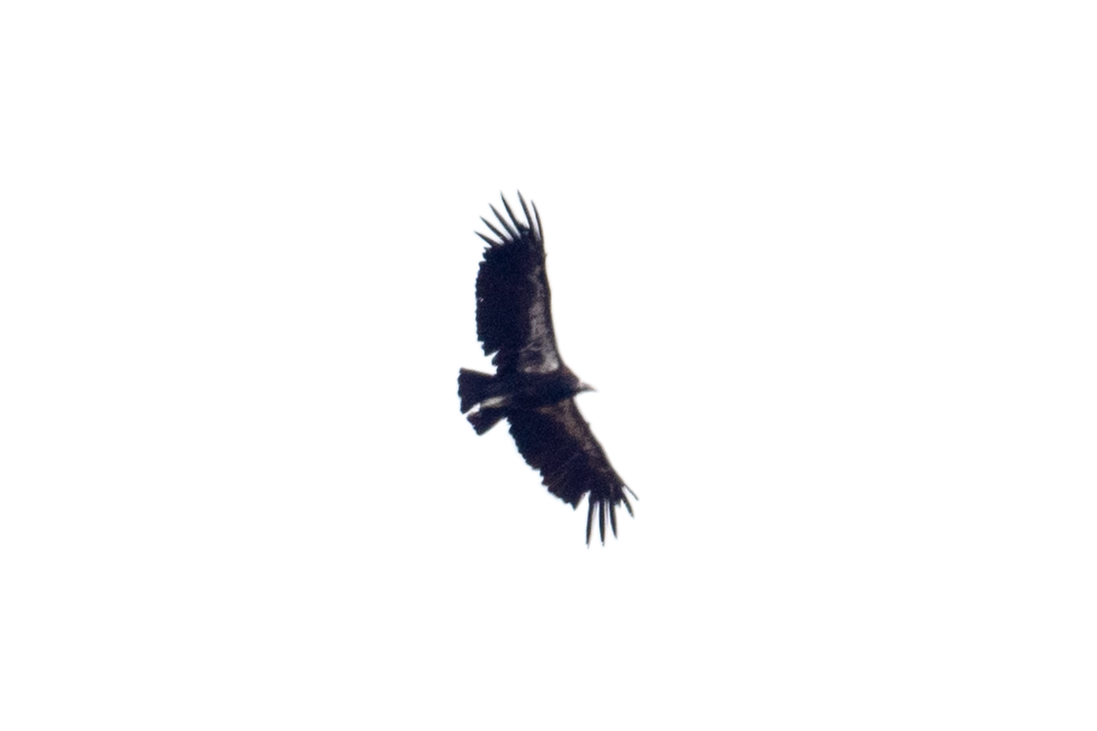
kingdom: Animalia
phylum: Chordata
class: Aves
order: Accipitriformes
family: Cathartidae
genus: Gymnogyps
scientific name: Gymnogyps californianus
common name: California condor
